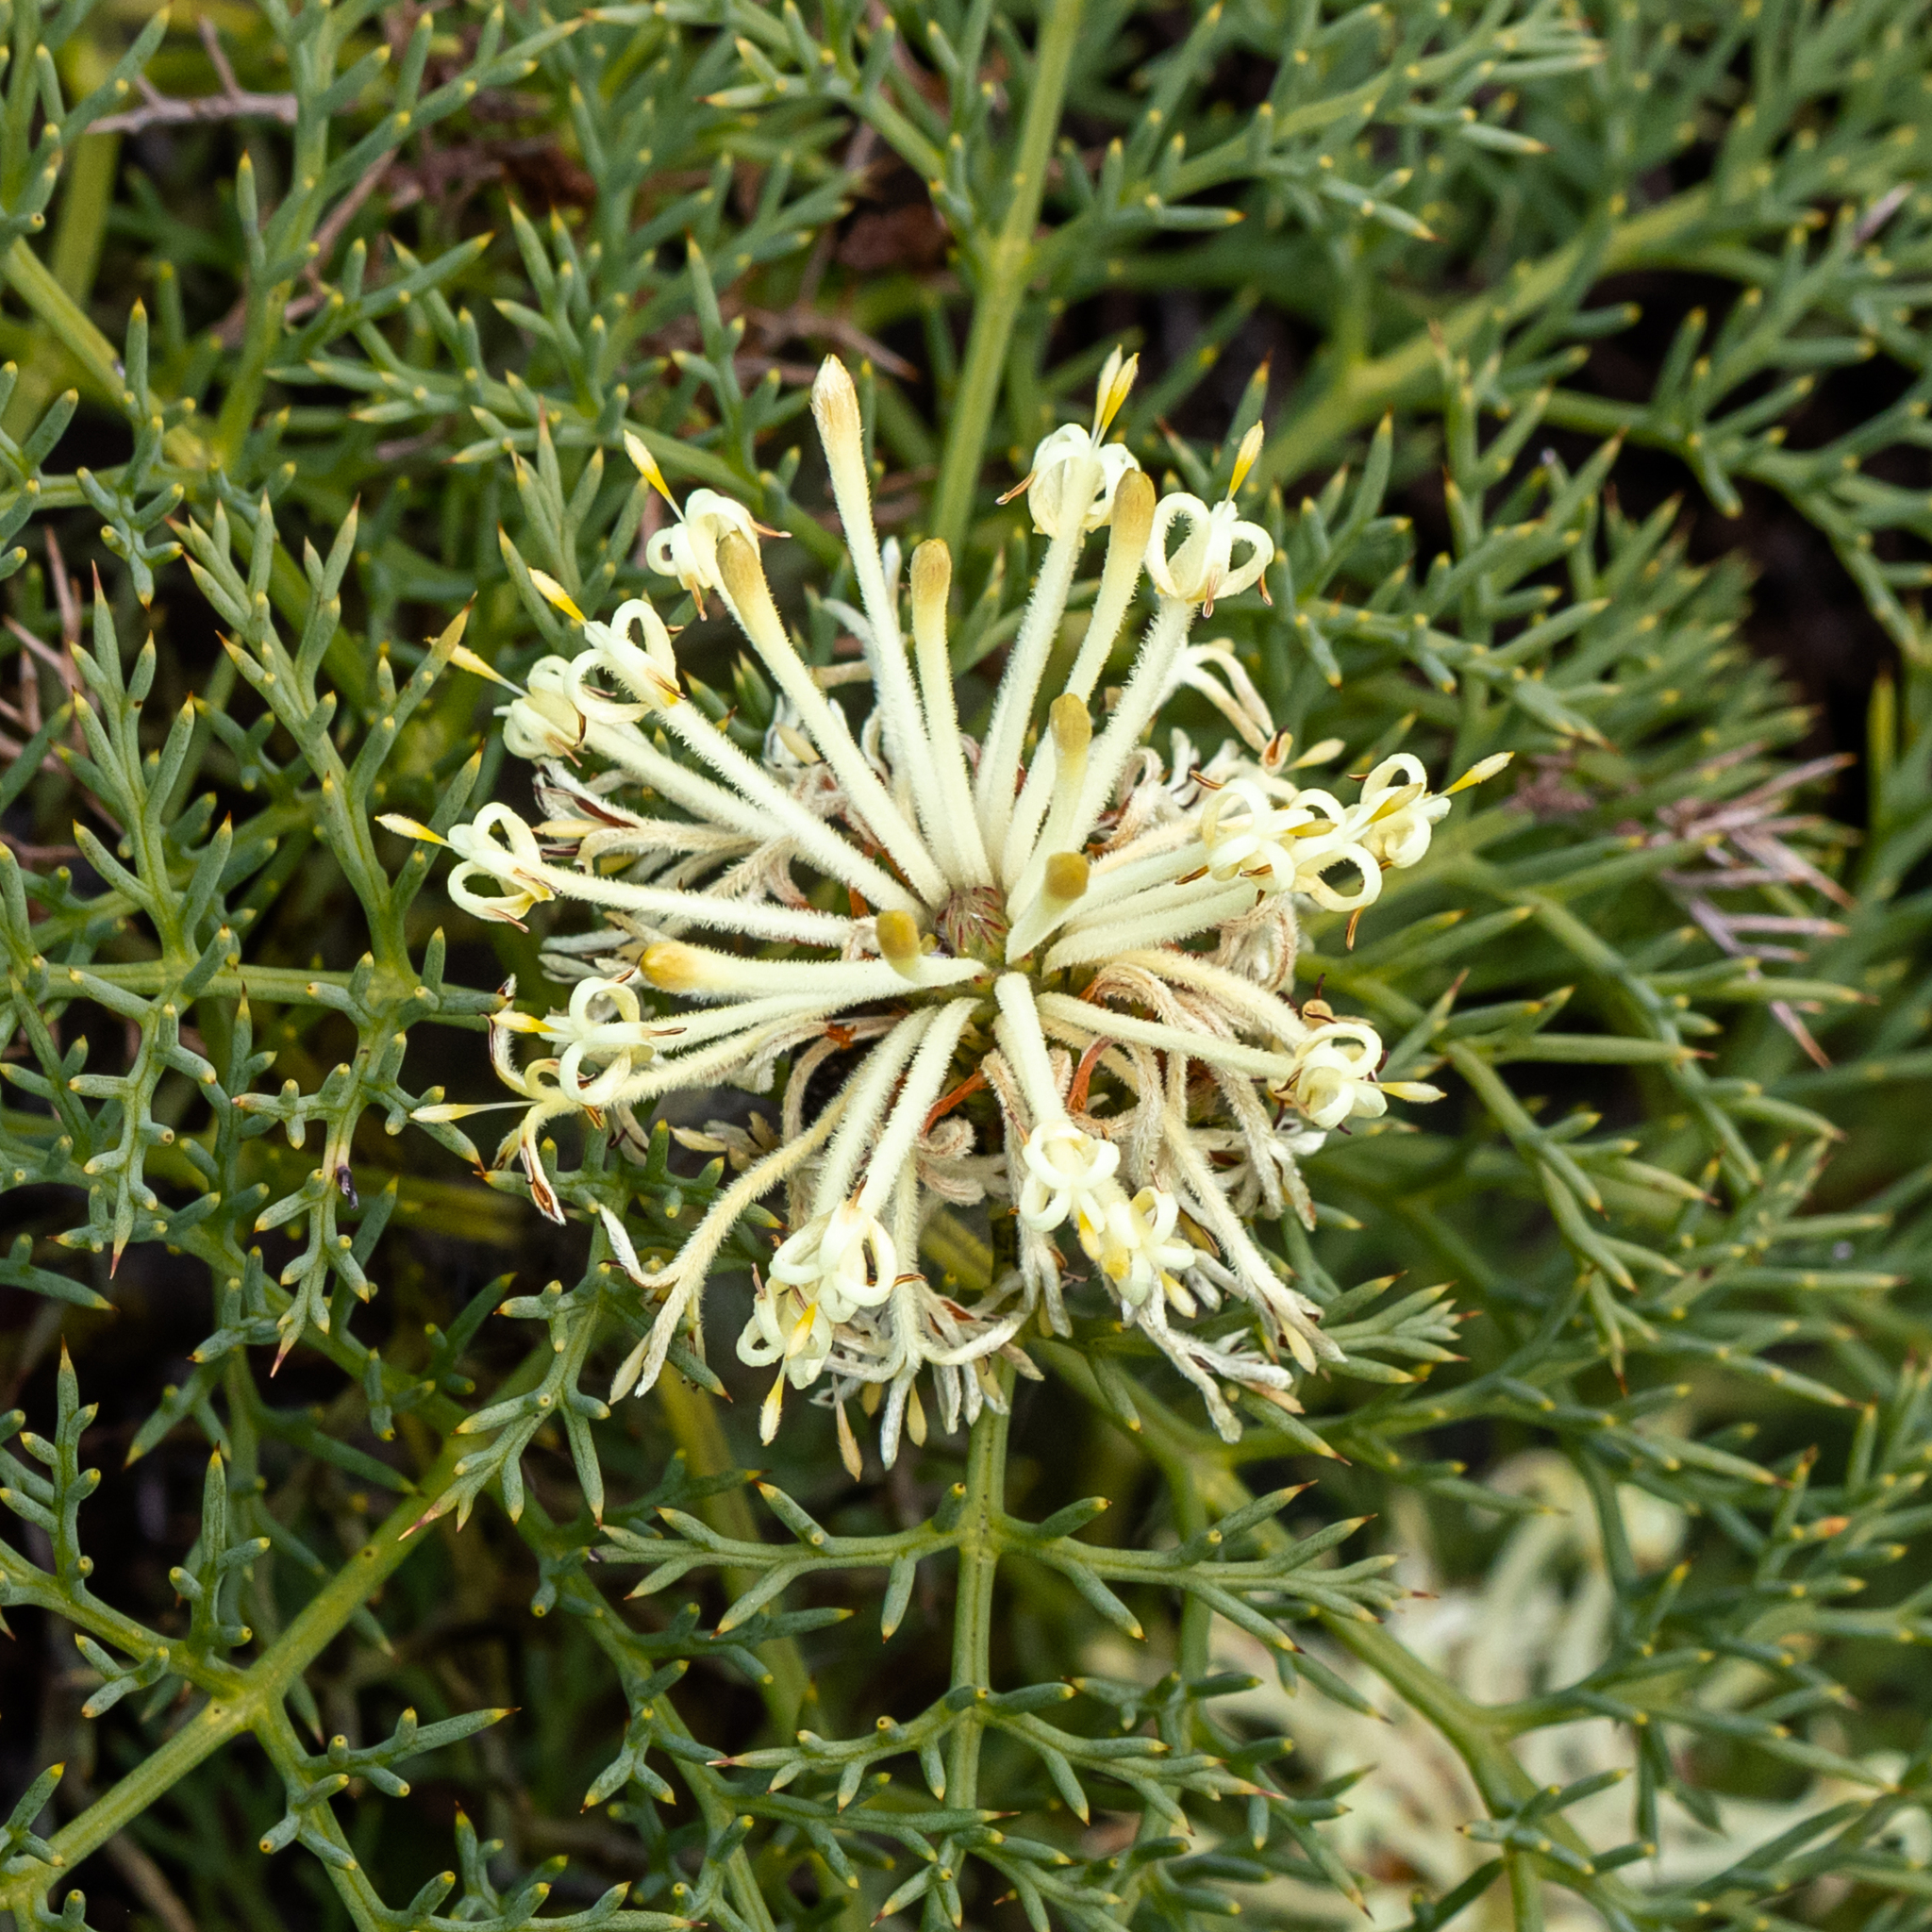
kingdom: Plantae
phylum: Tracheophyta
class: Magnoliopsida
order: Proteales
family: Proteaceae
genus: Petrophile
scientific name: Petrophile divaricata
